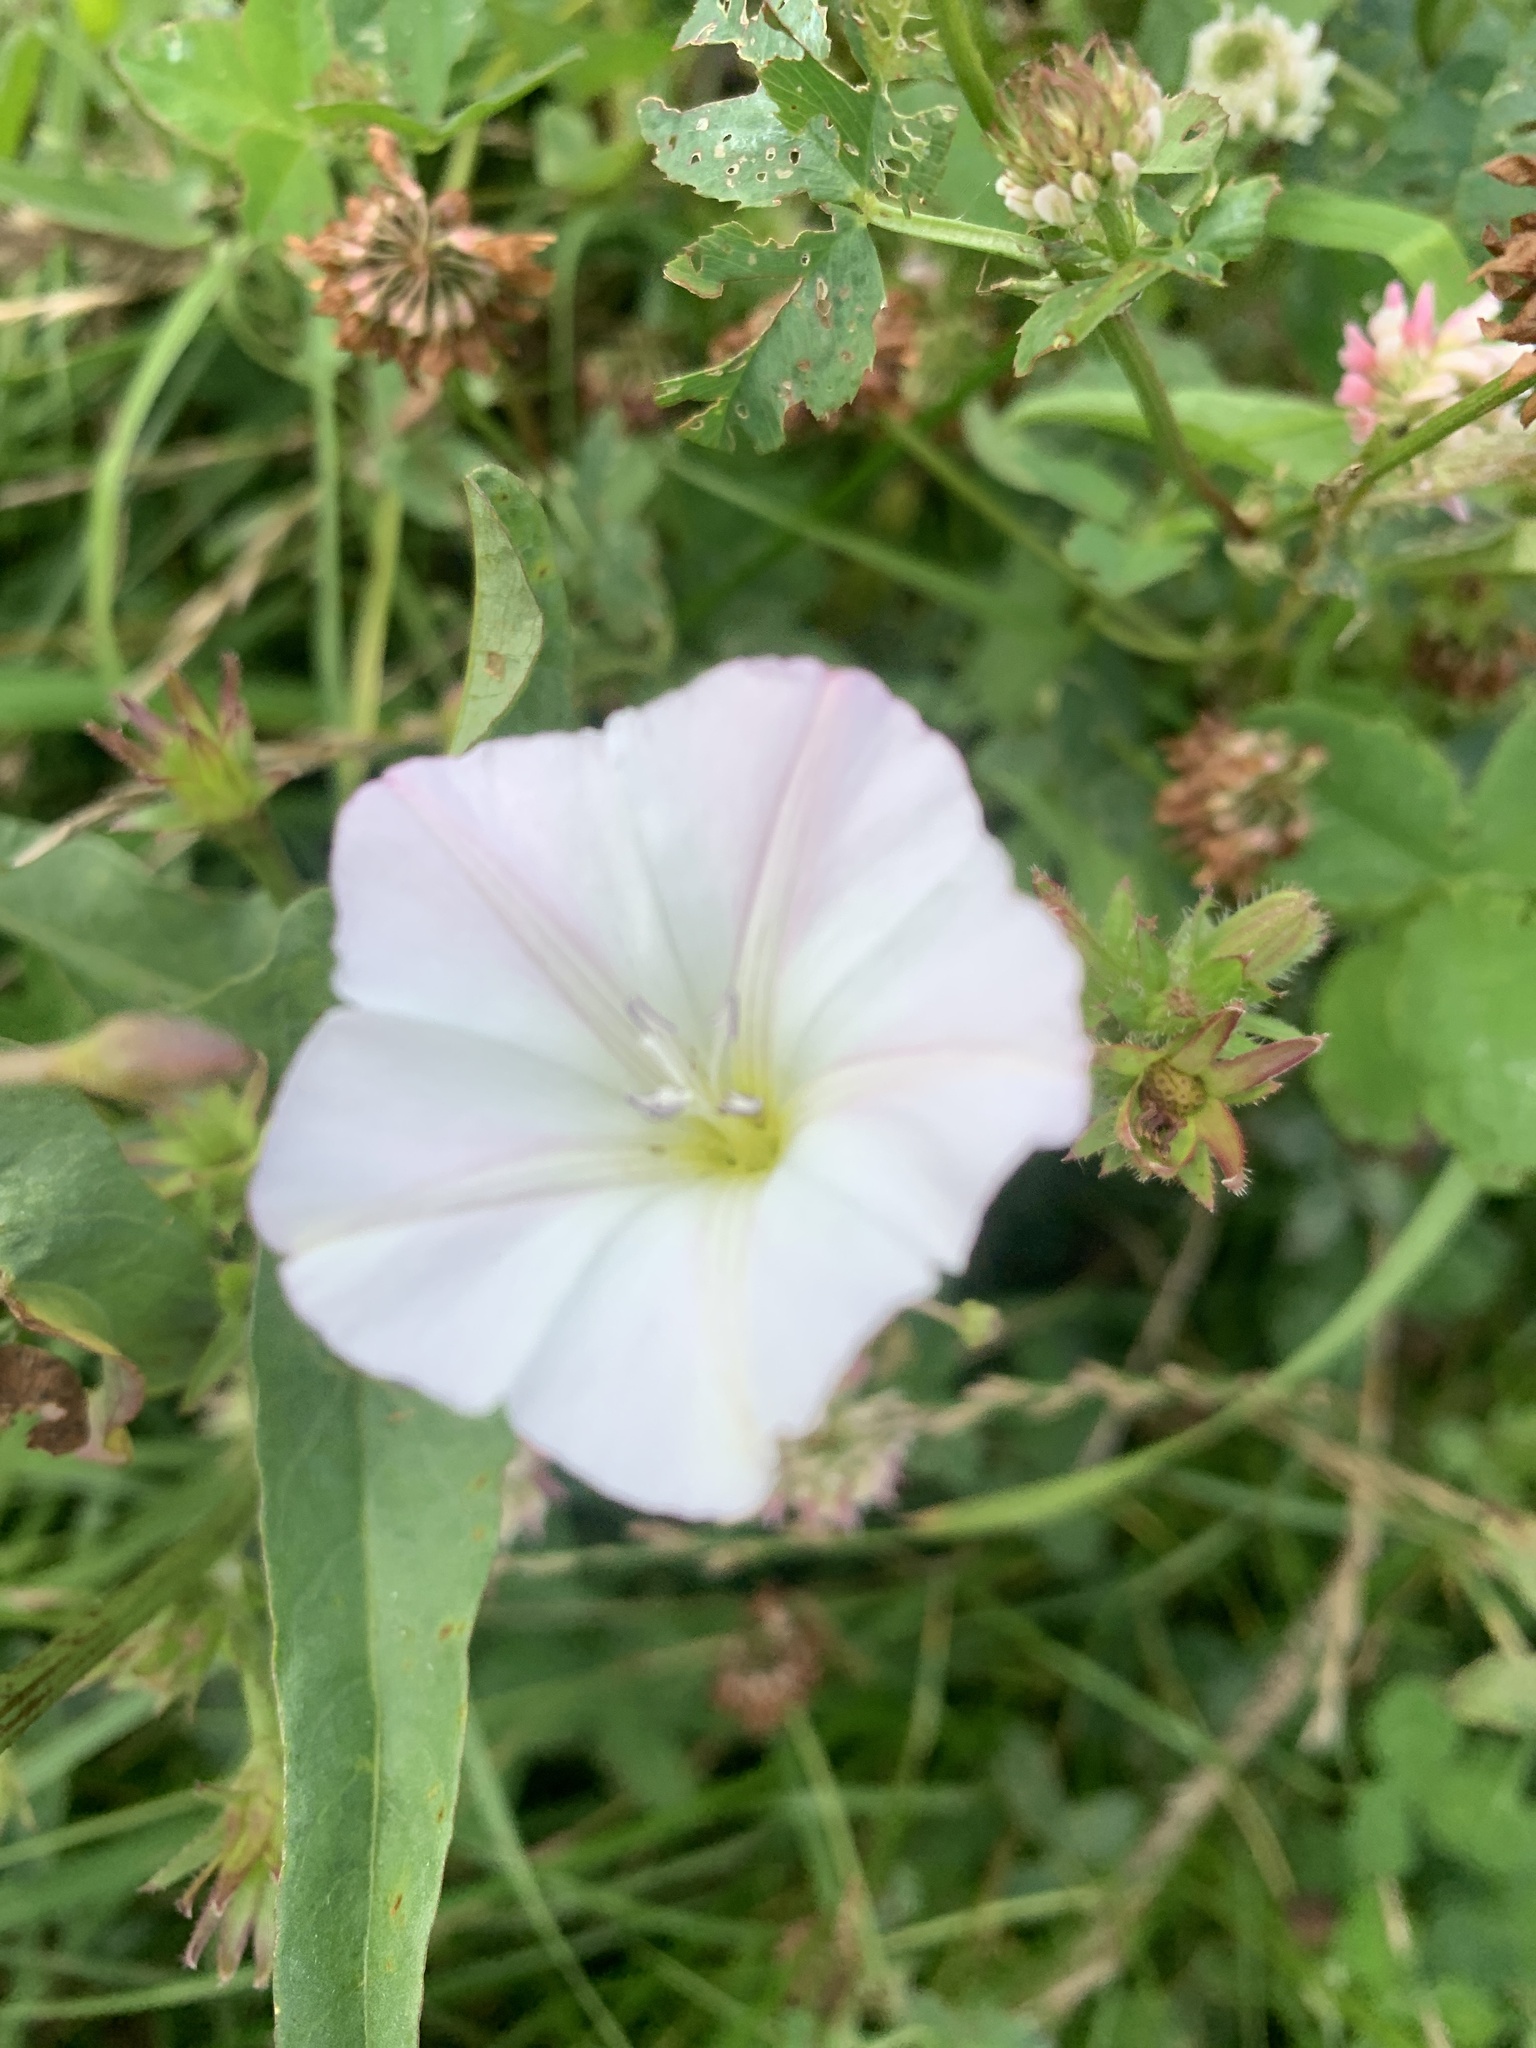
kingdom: Plantae
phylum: Tracheophyta
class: Magnoliopsida
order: Solanales
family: Convolvulaceae
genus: Convolvulus
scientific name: Convolvulus arvensis
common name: Field bindweed
